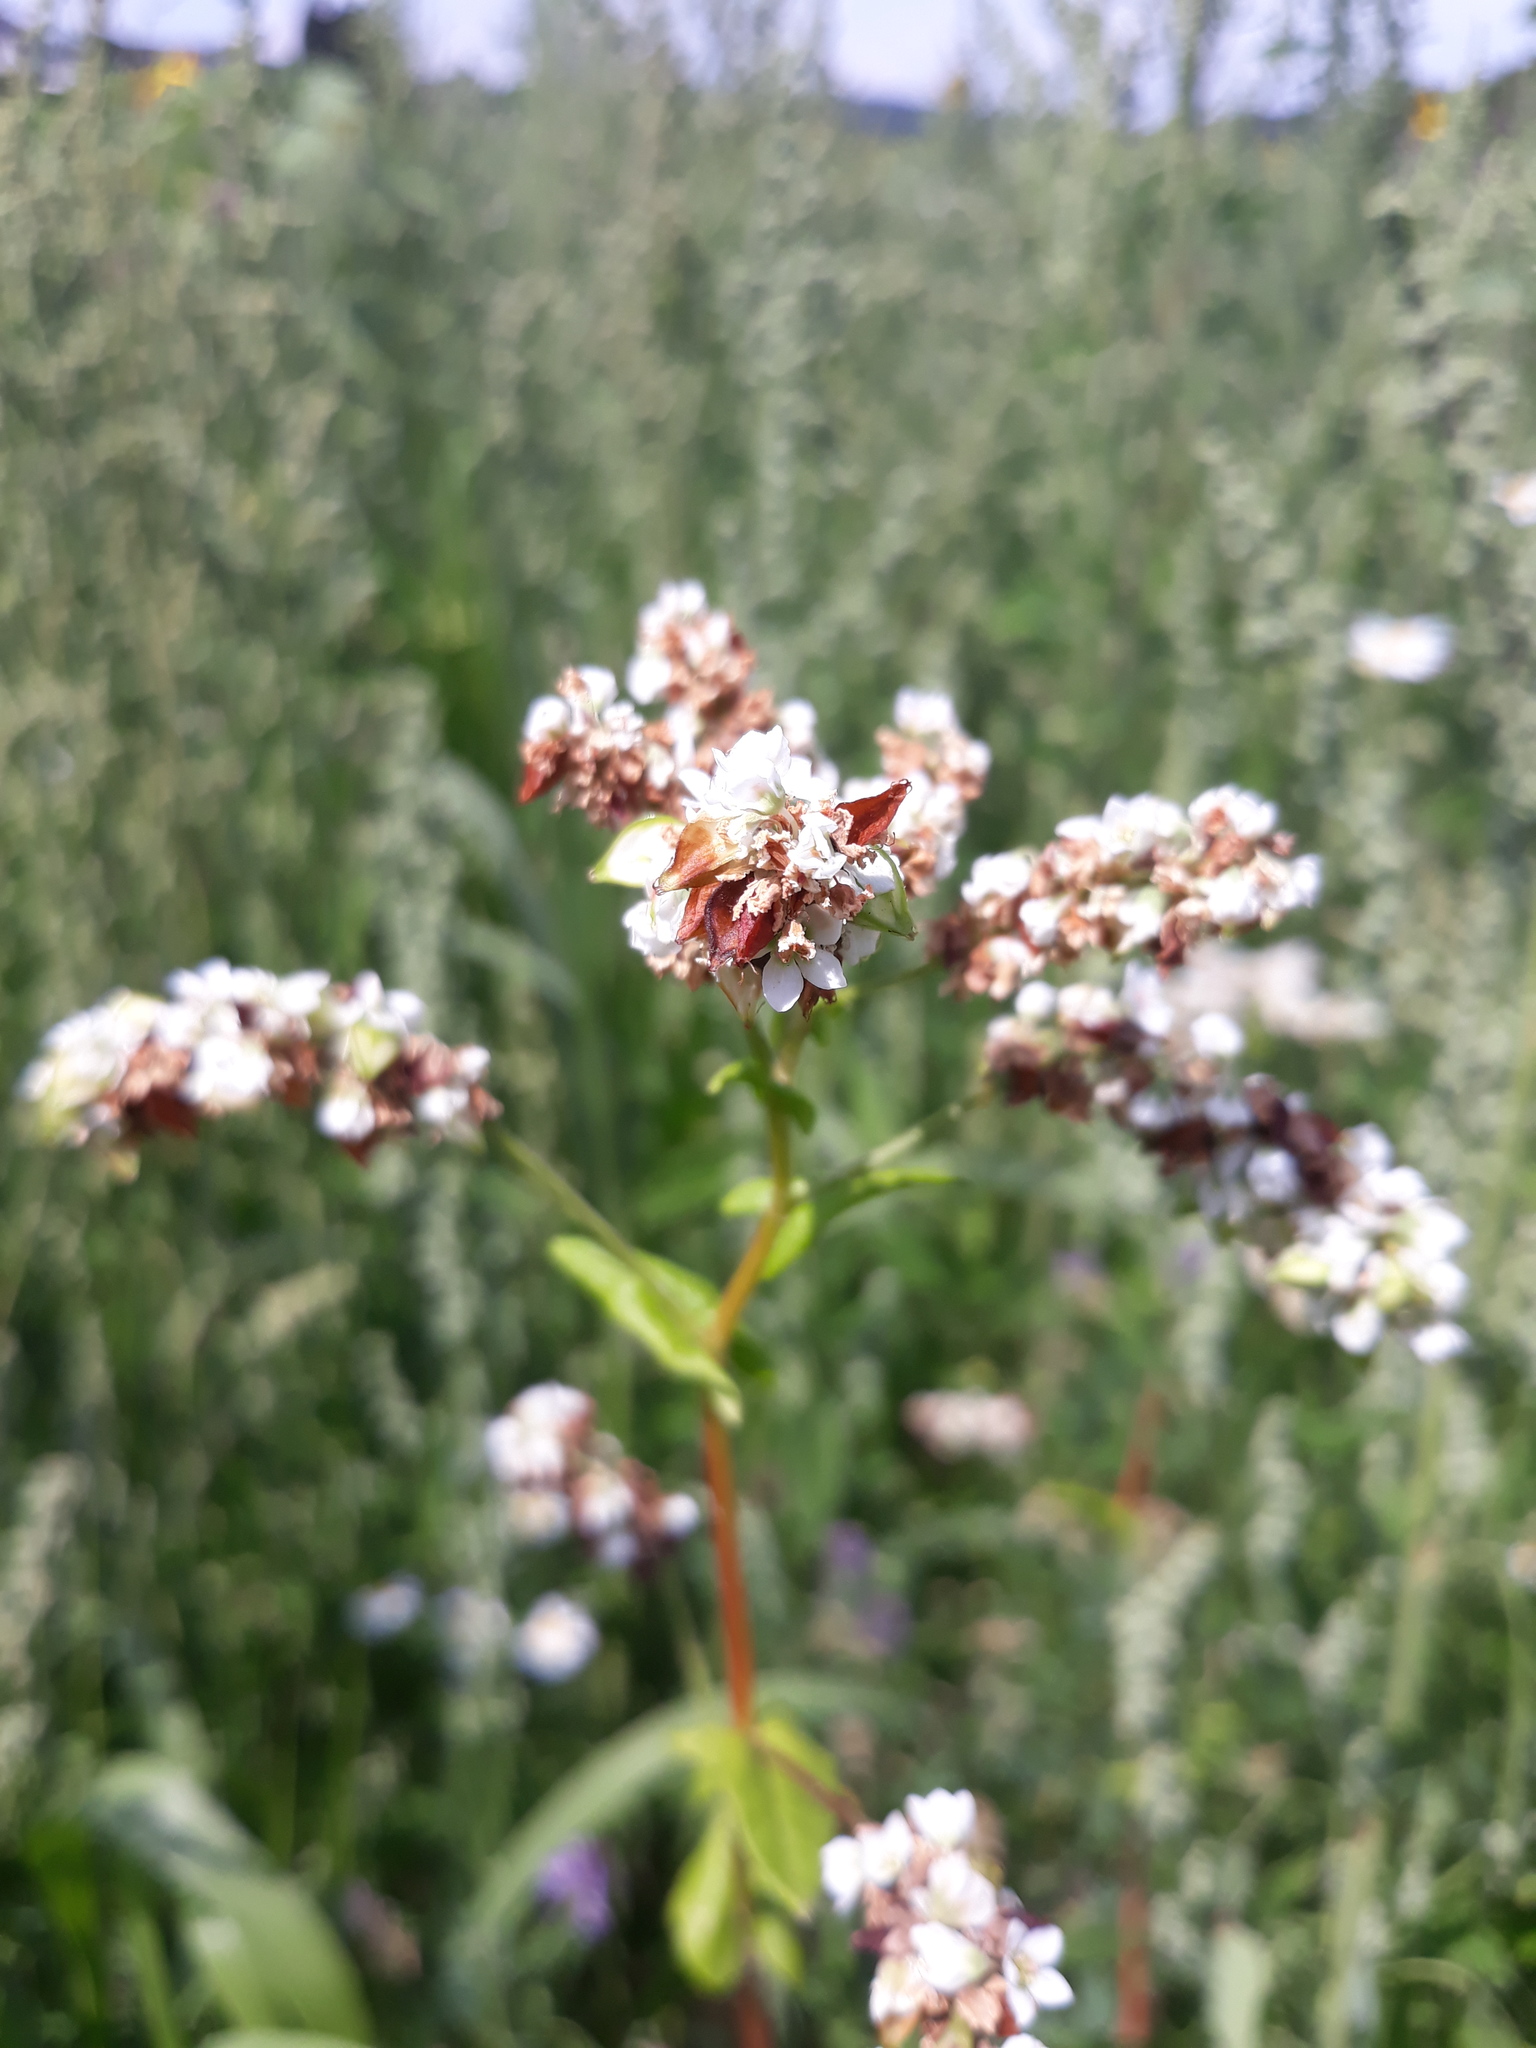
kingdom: Plantae
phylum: Tracheophyta
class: Magnoliopsida
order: Caryophyllales
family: Polygonaceae
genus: Fagopyrum
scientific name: Fagopyrum esculentum
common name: Buckwheat
